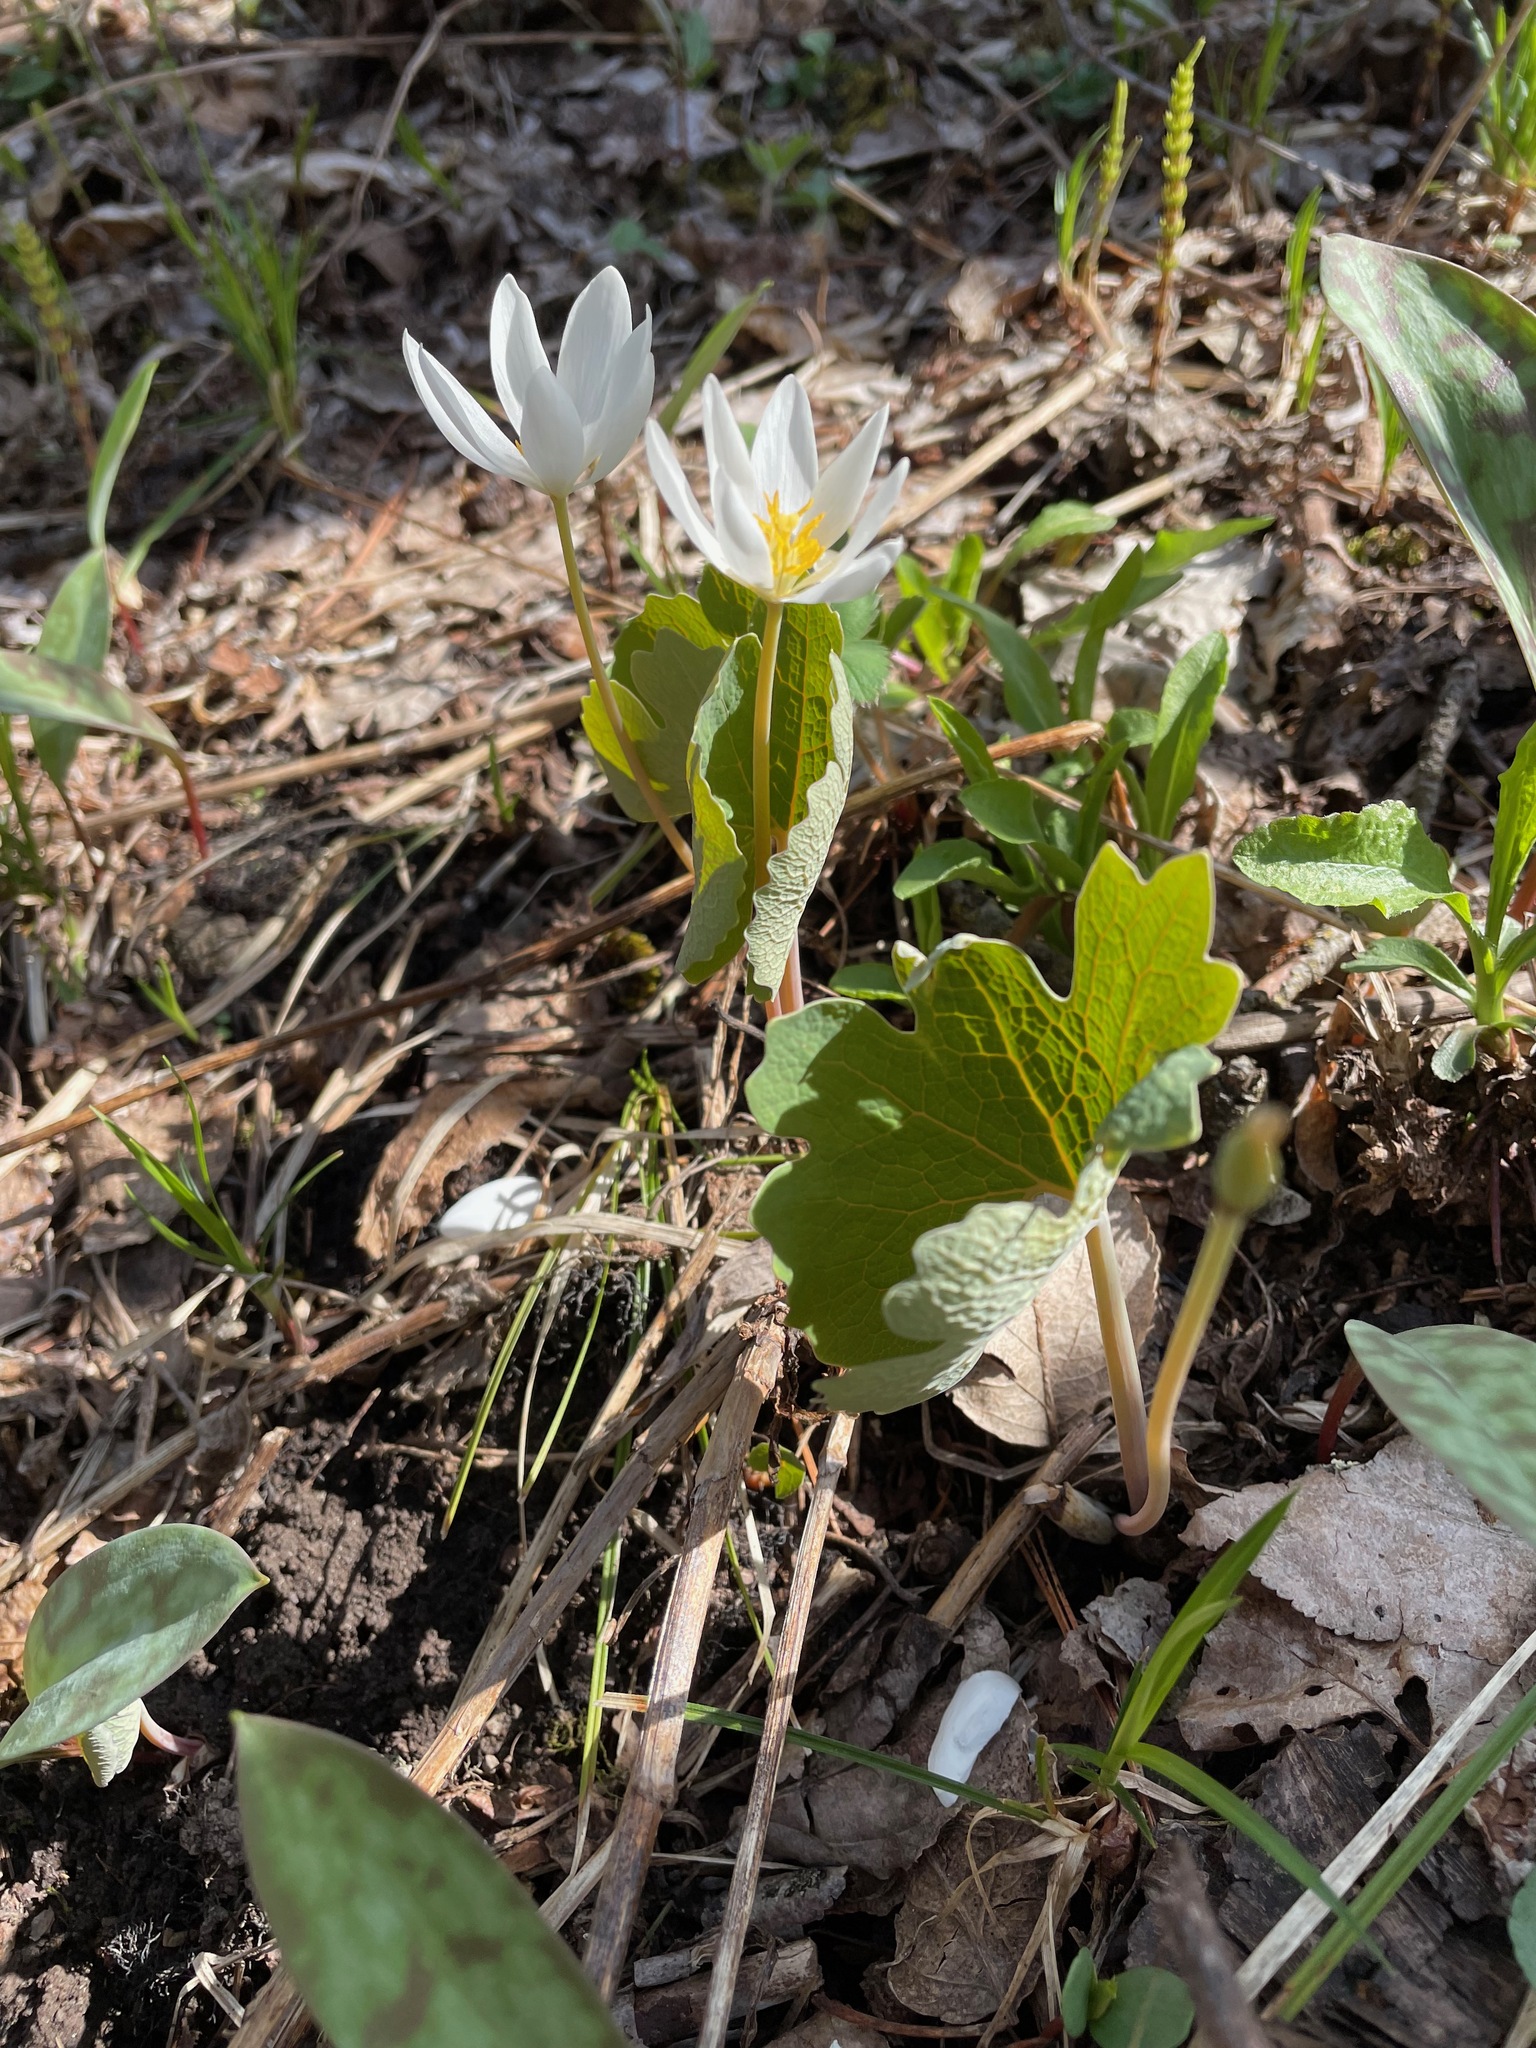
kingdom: Plantae
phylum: Tracheophyta
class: Magnoliopsida
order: Ranunculales
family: Papaveraceae
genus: Sanguinaria
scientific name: Sanguinaria canadensis
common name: Bloodroot
